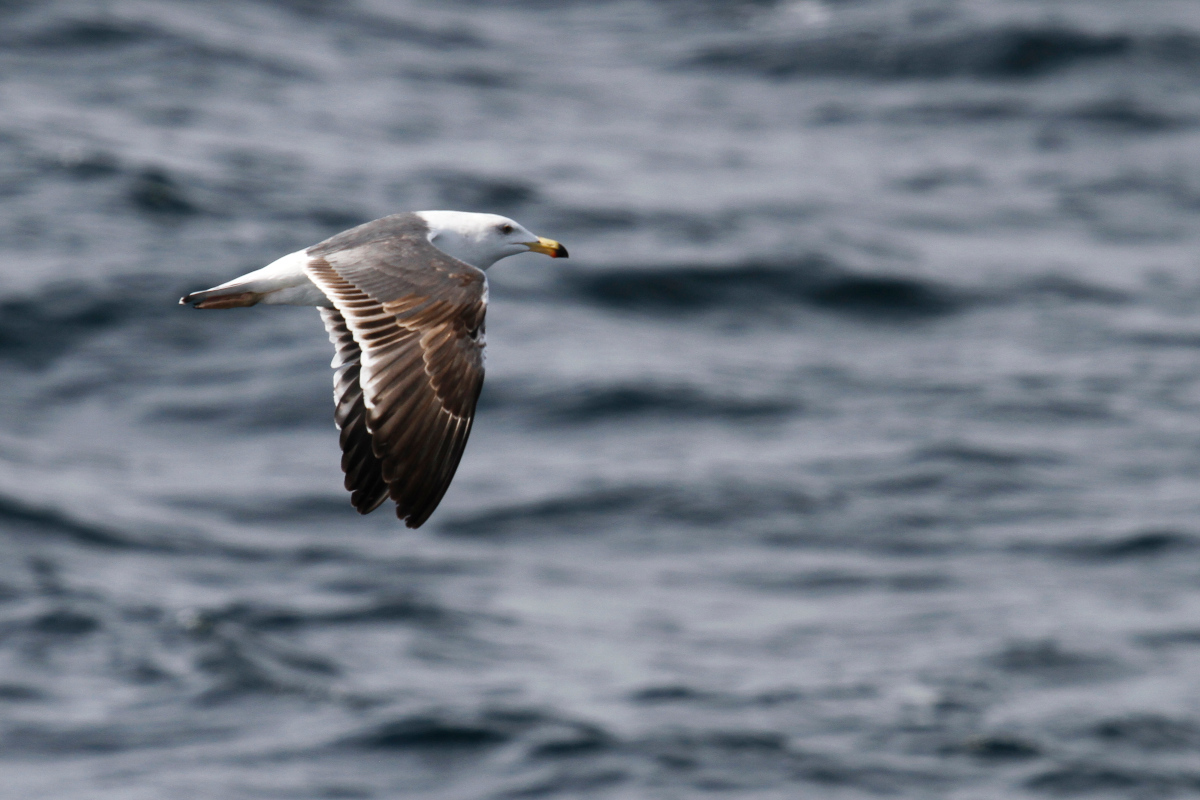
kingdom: Animalia
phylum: Chordata
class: Aves
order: Charadriiformes
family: Laridae
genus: Larus
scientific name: Larus livens
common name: Yellow-footed gull
